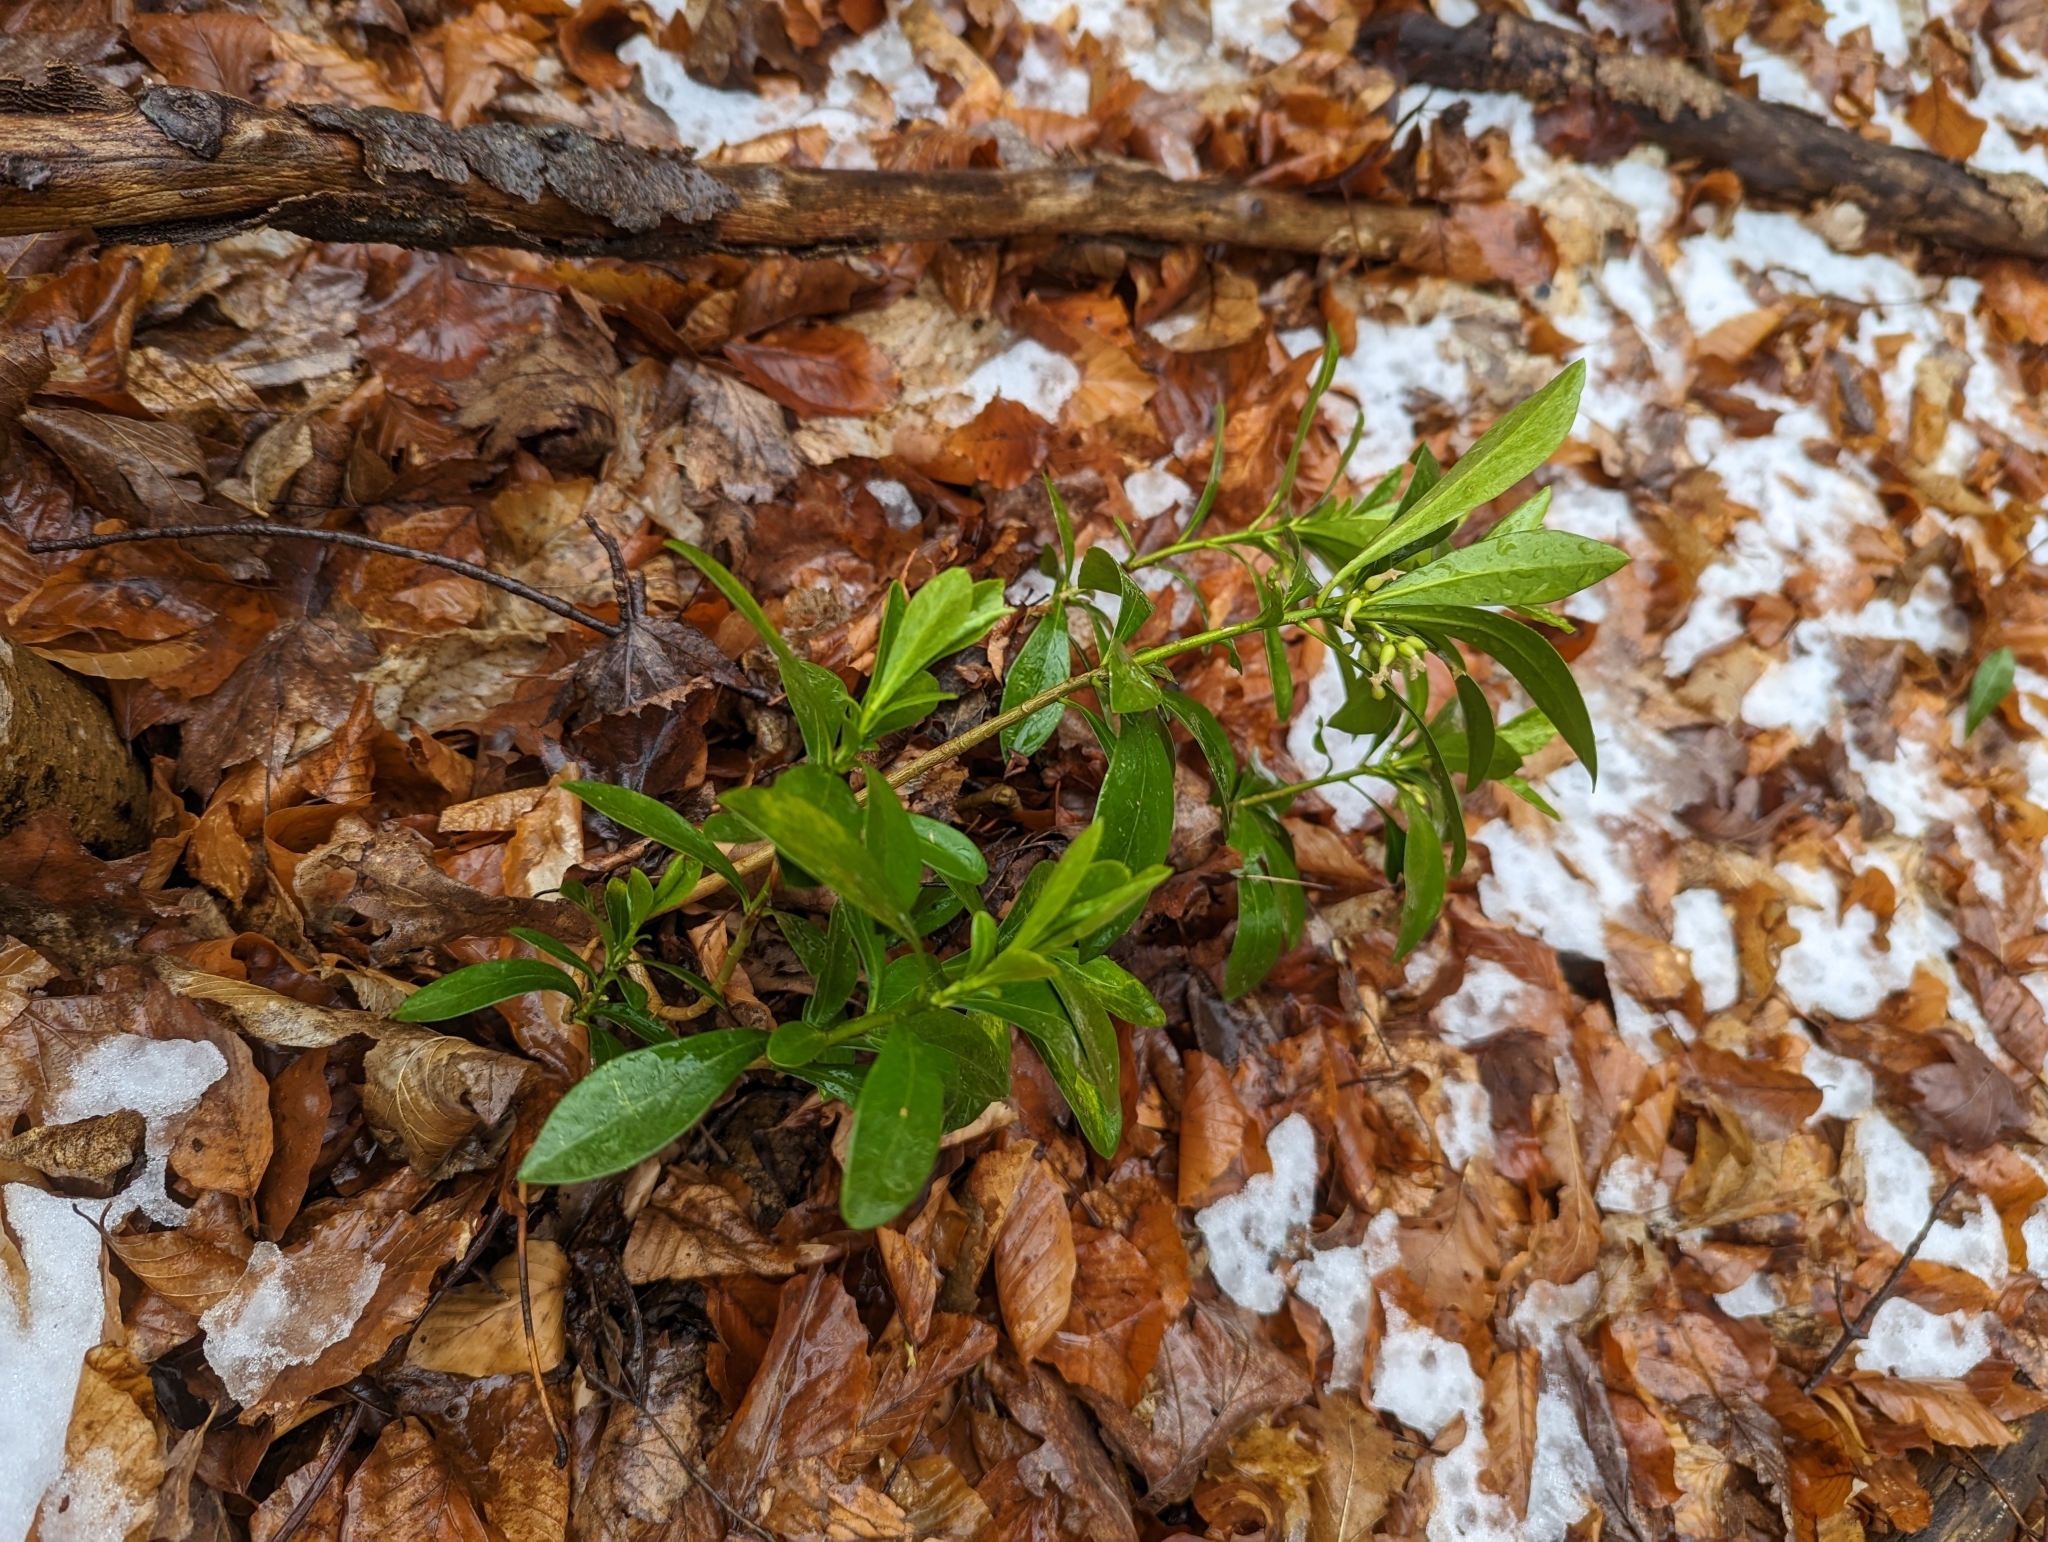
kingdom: Plantae
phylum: Tracheophyta
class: Magnoliopsida
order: Malvales
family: Thymelaeaceae
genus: Daphne
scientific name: Daphne laureola
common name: Spurge-laurel
